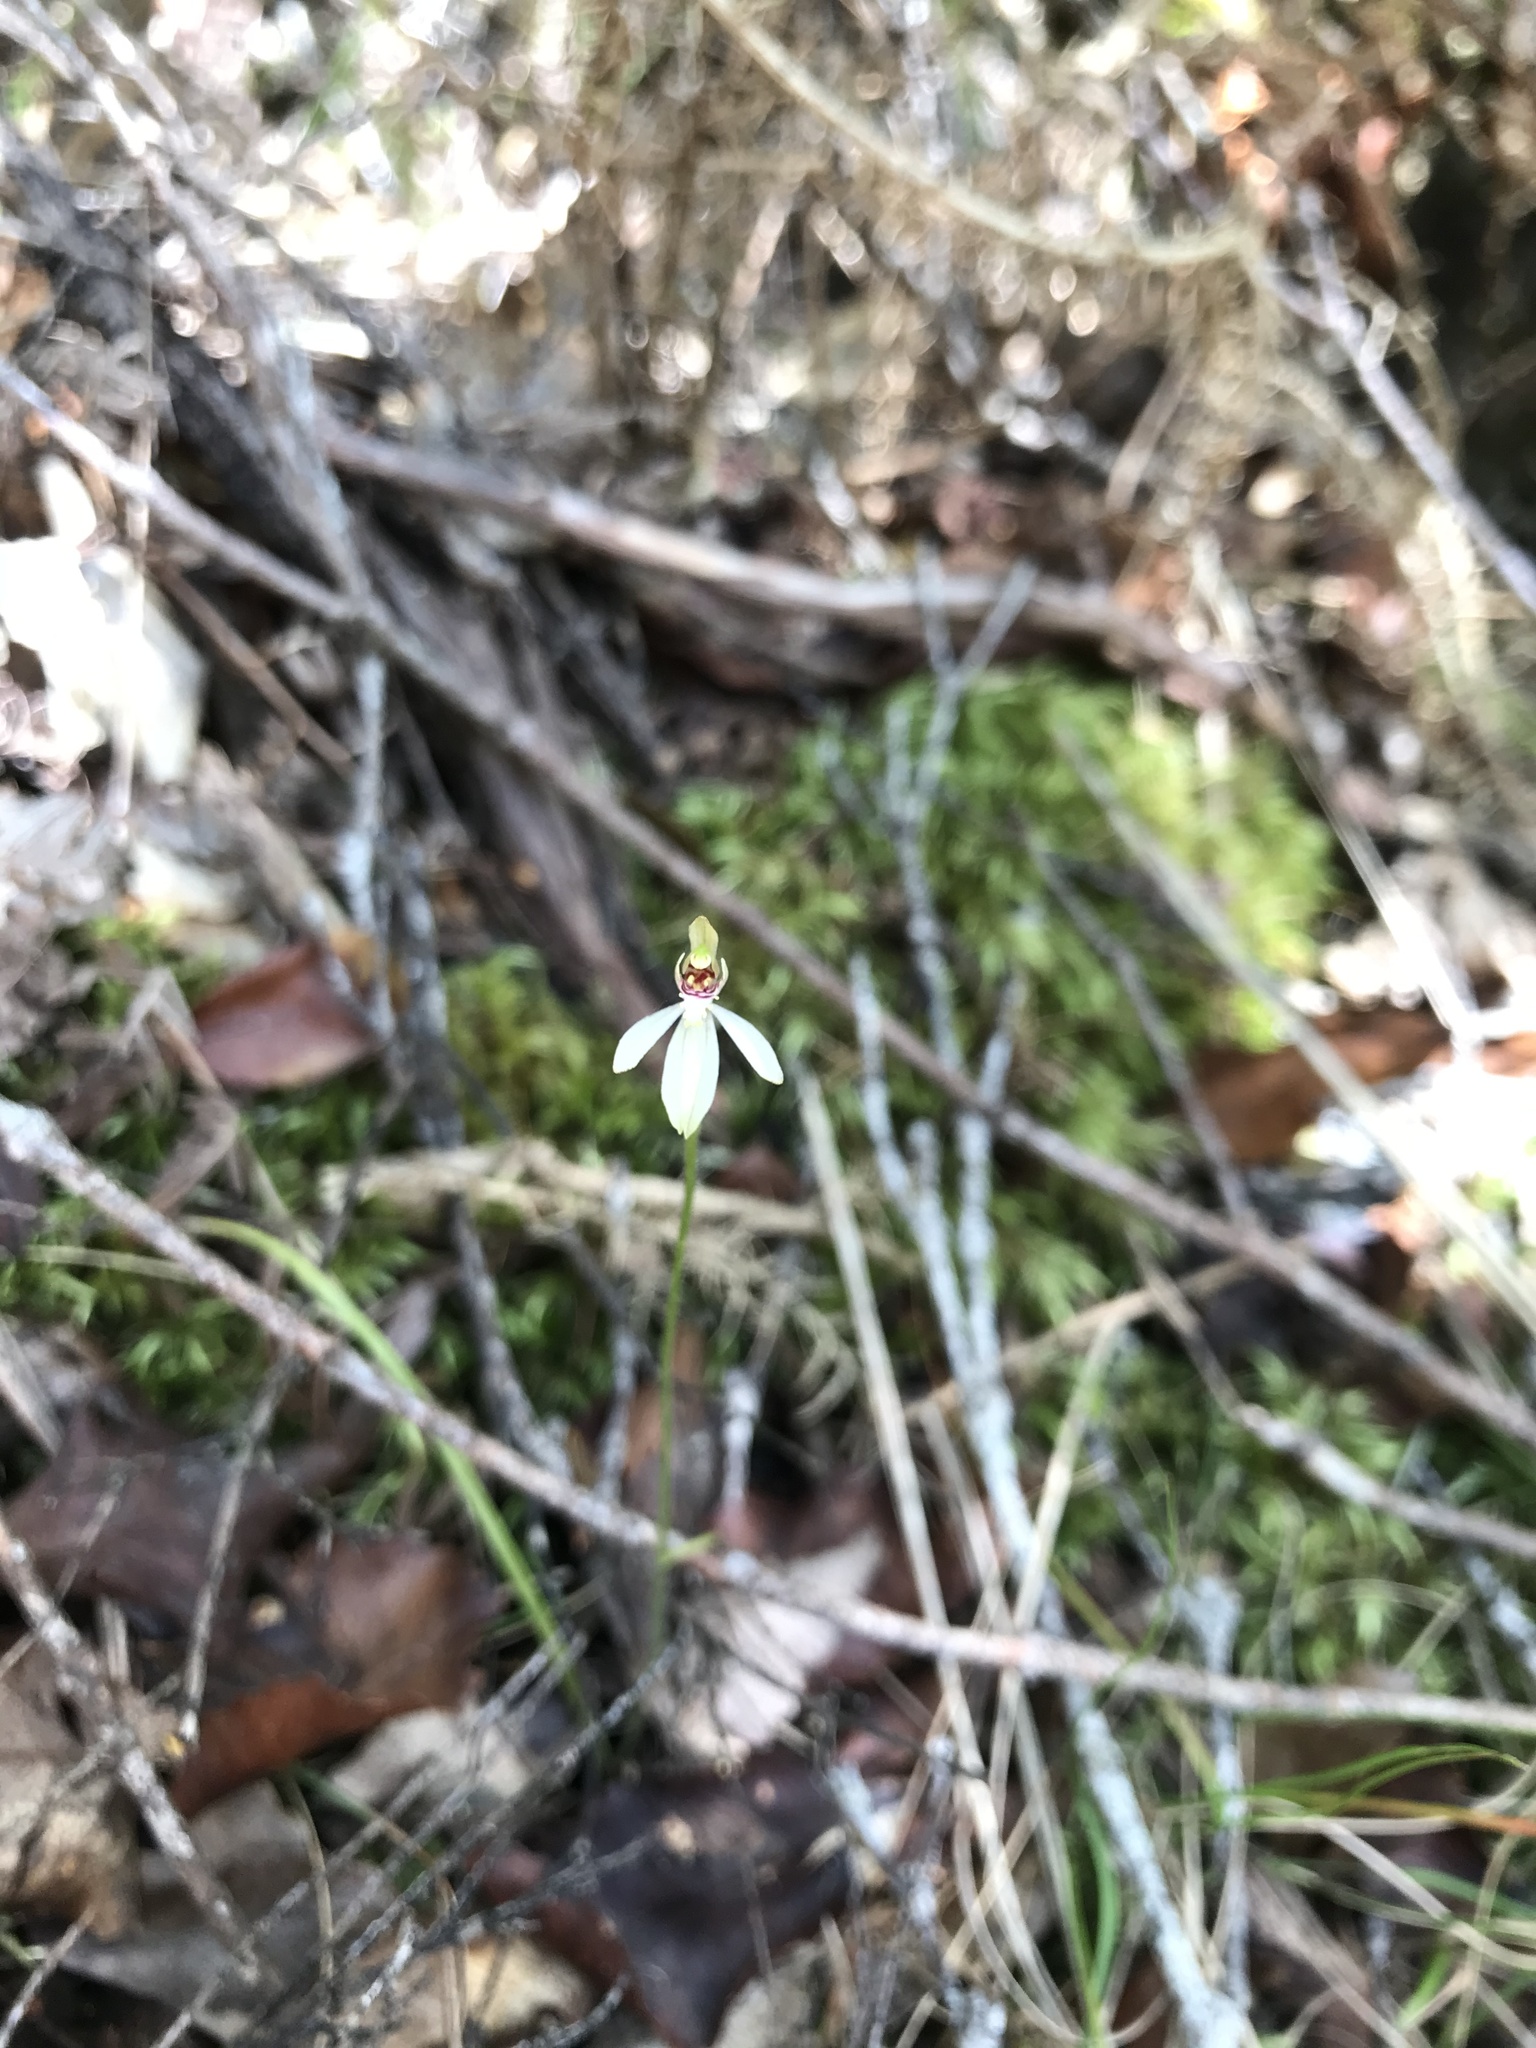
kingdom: Plantae
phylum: Tracheophyta
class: Liliopsida
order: Asparagales
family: Orchidaceae
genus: Caladenia
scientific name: Caladenia chlorostyla
